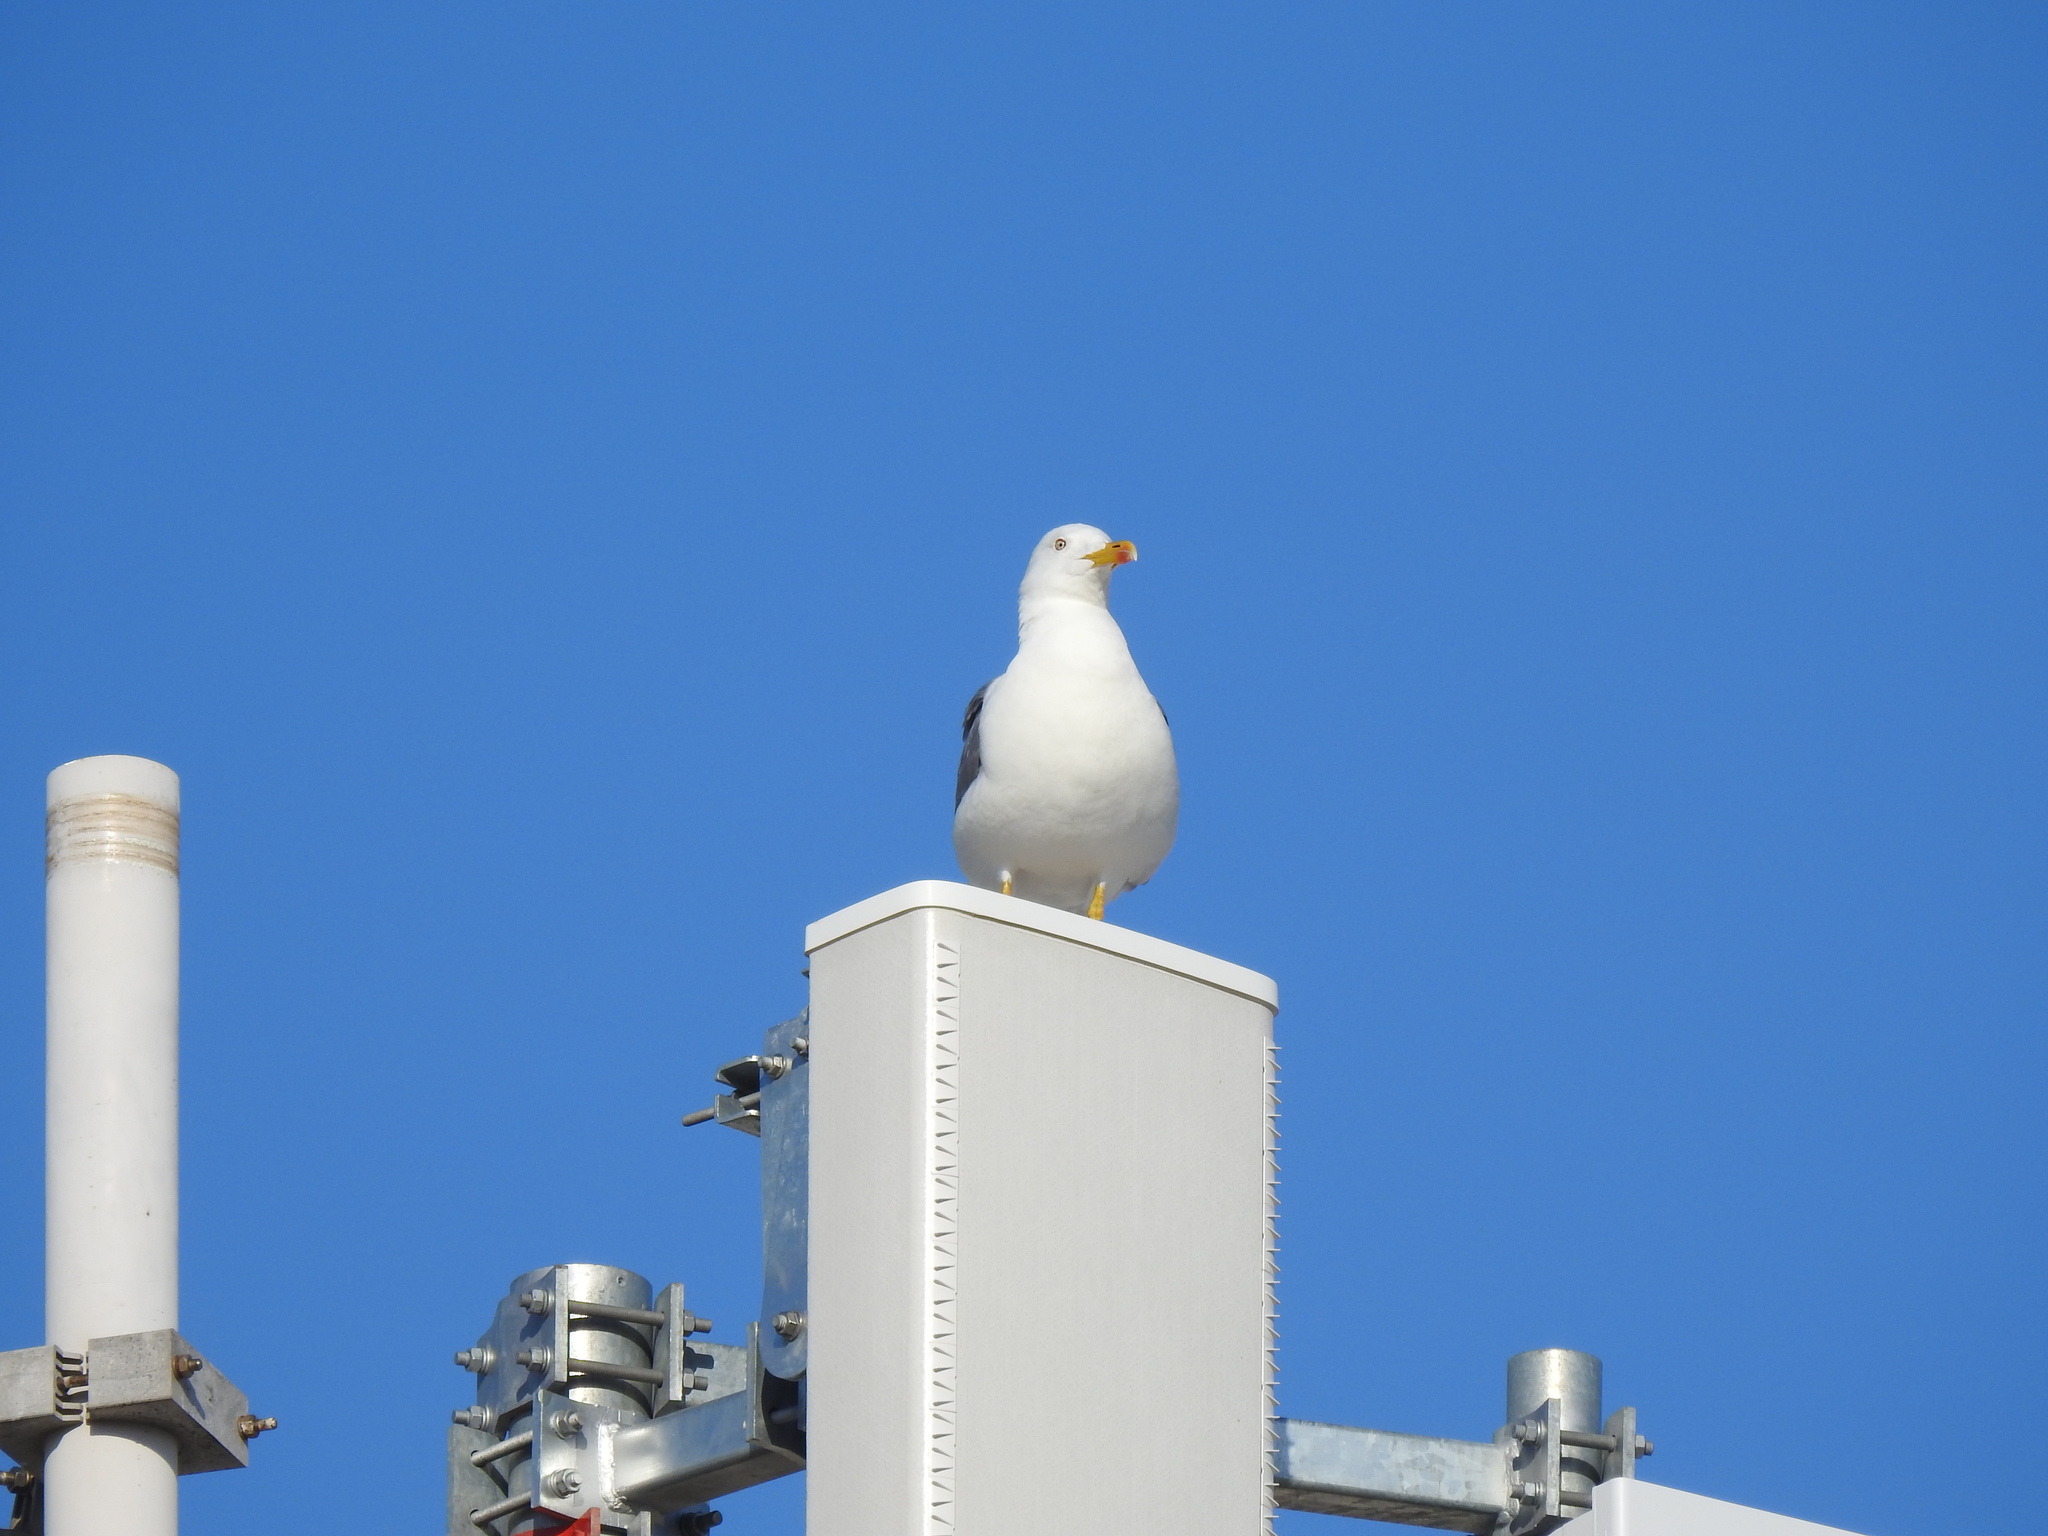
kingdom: Animalia
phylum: Chordata
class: Aves
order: Charadriiformes
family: Laridae
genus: Larus
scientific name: Larus michahellis
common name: Yellow-legged gull
